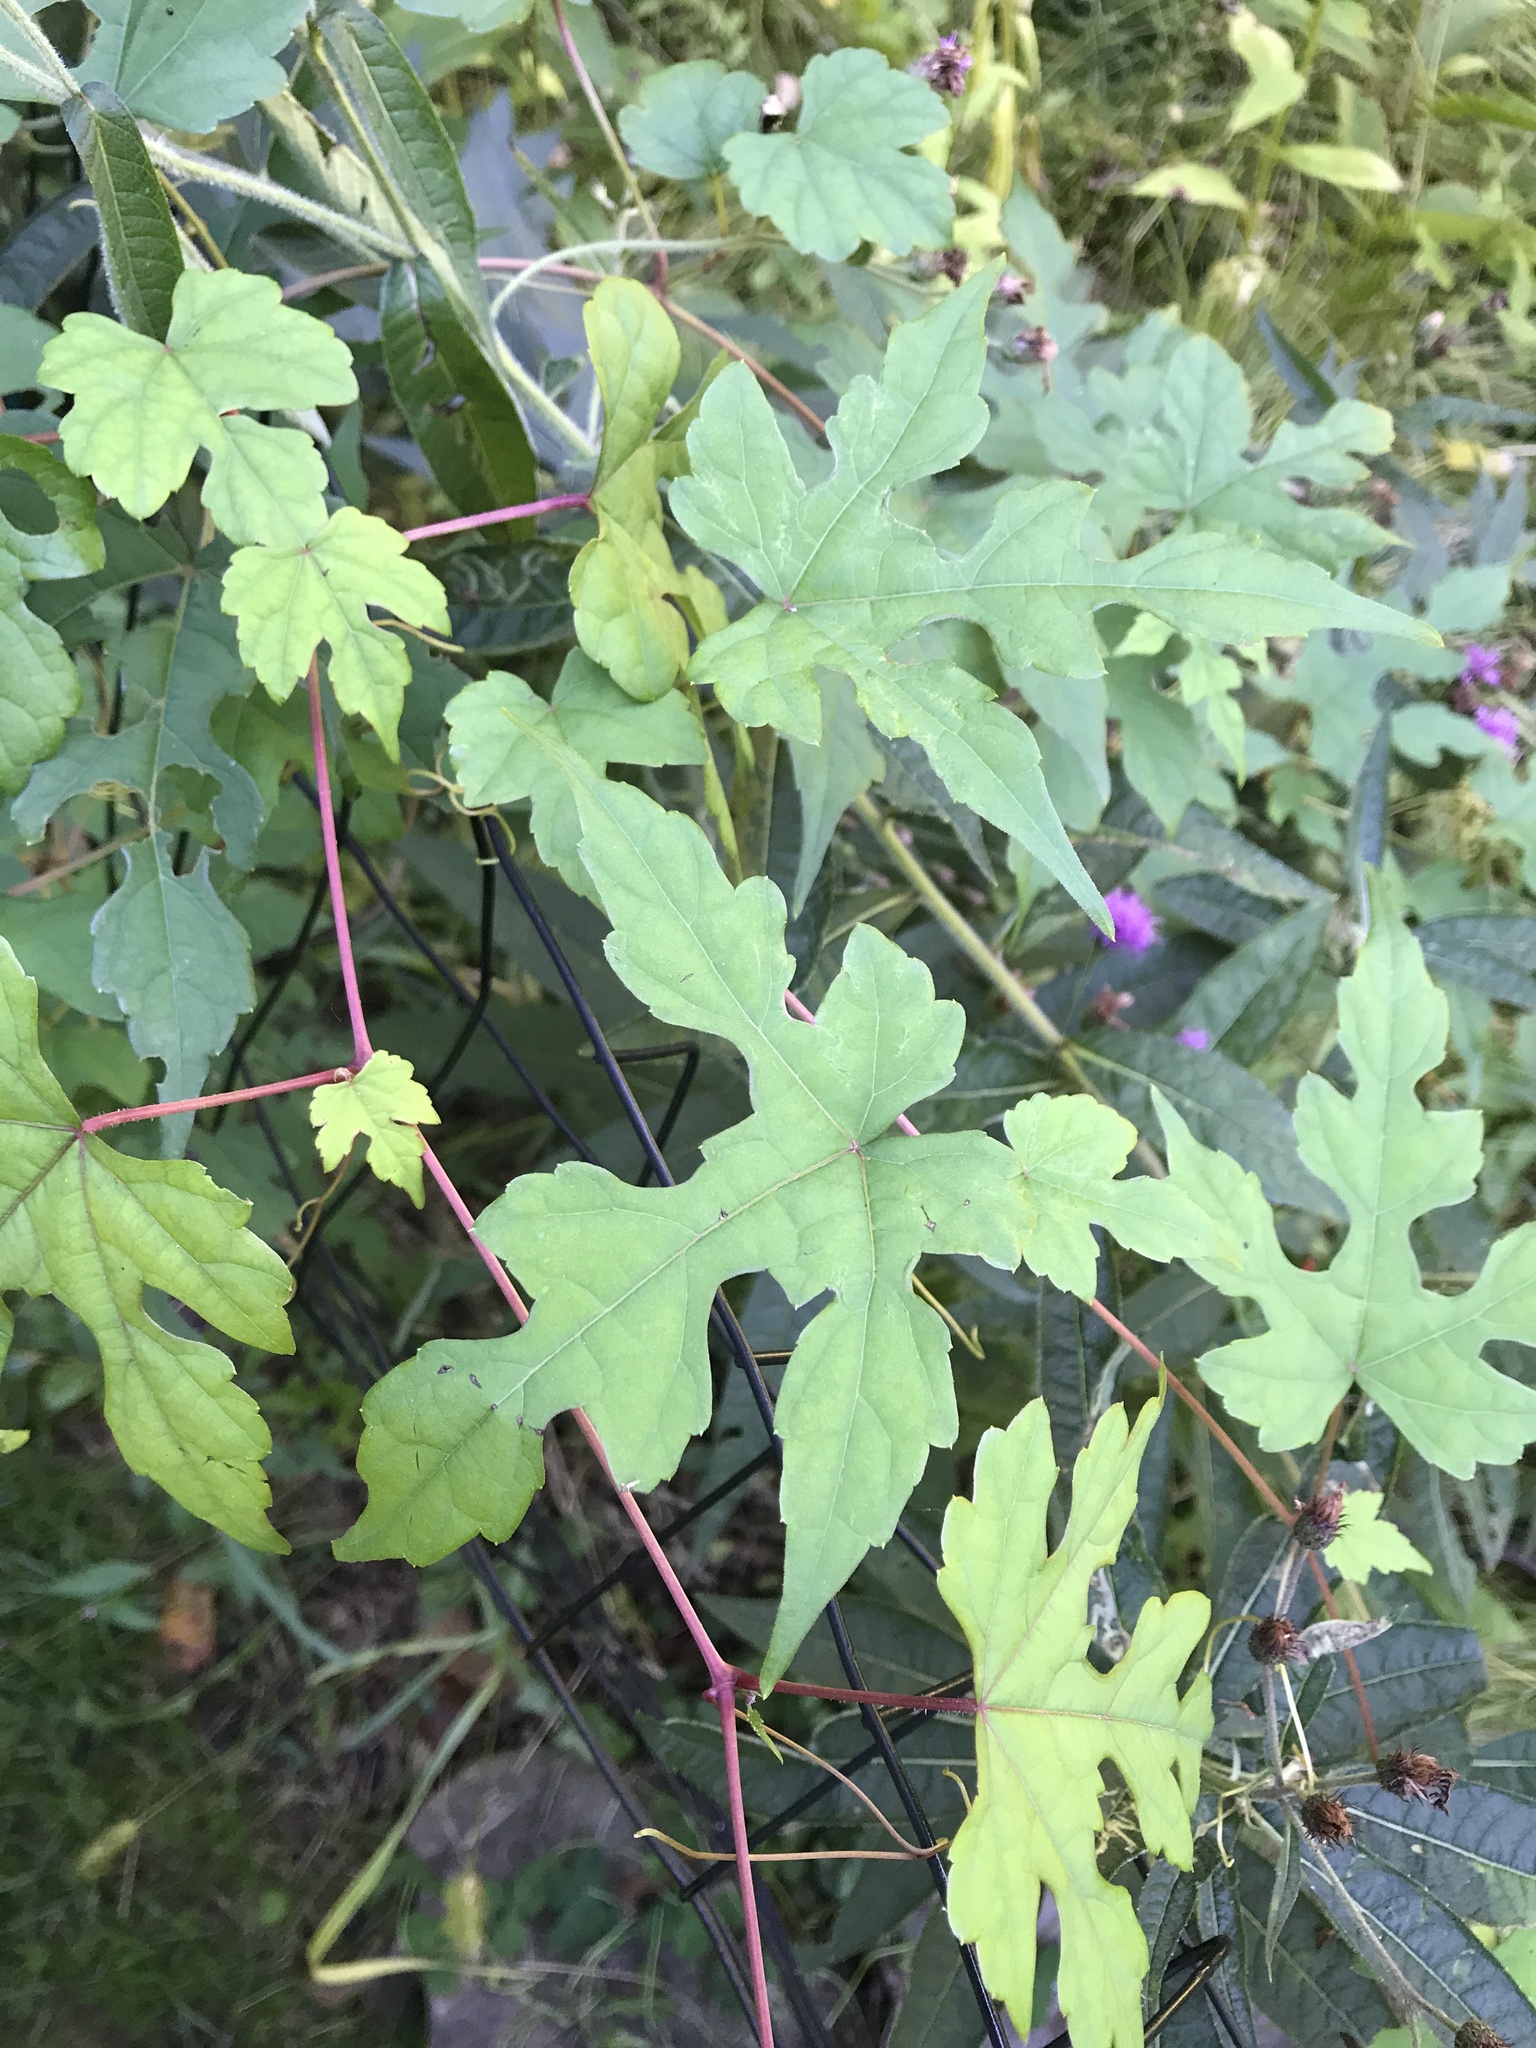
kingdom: Plantae
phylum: Tracheophyta
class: Magnoliopsida
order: Vitales
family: Vitaceae
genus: Ampelopsis
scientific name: Ampelopsis glandulosa
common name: Amur peppervine
